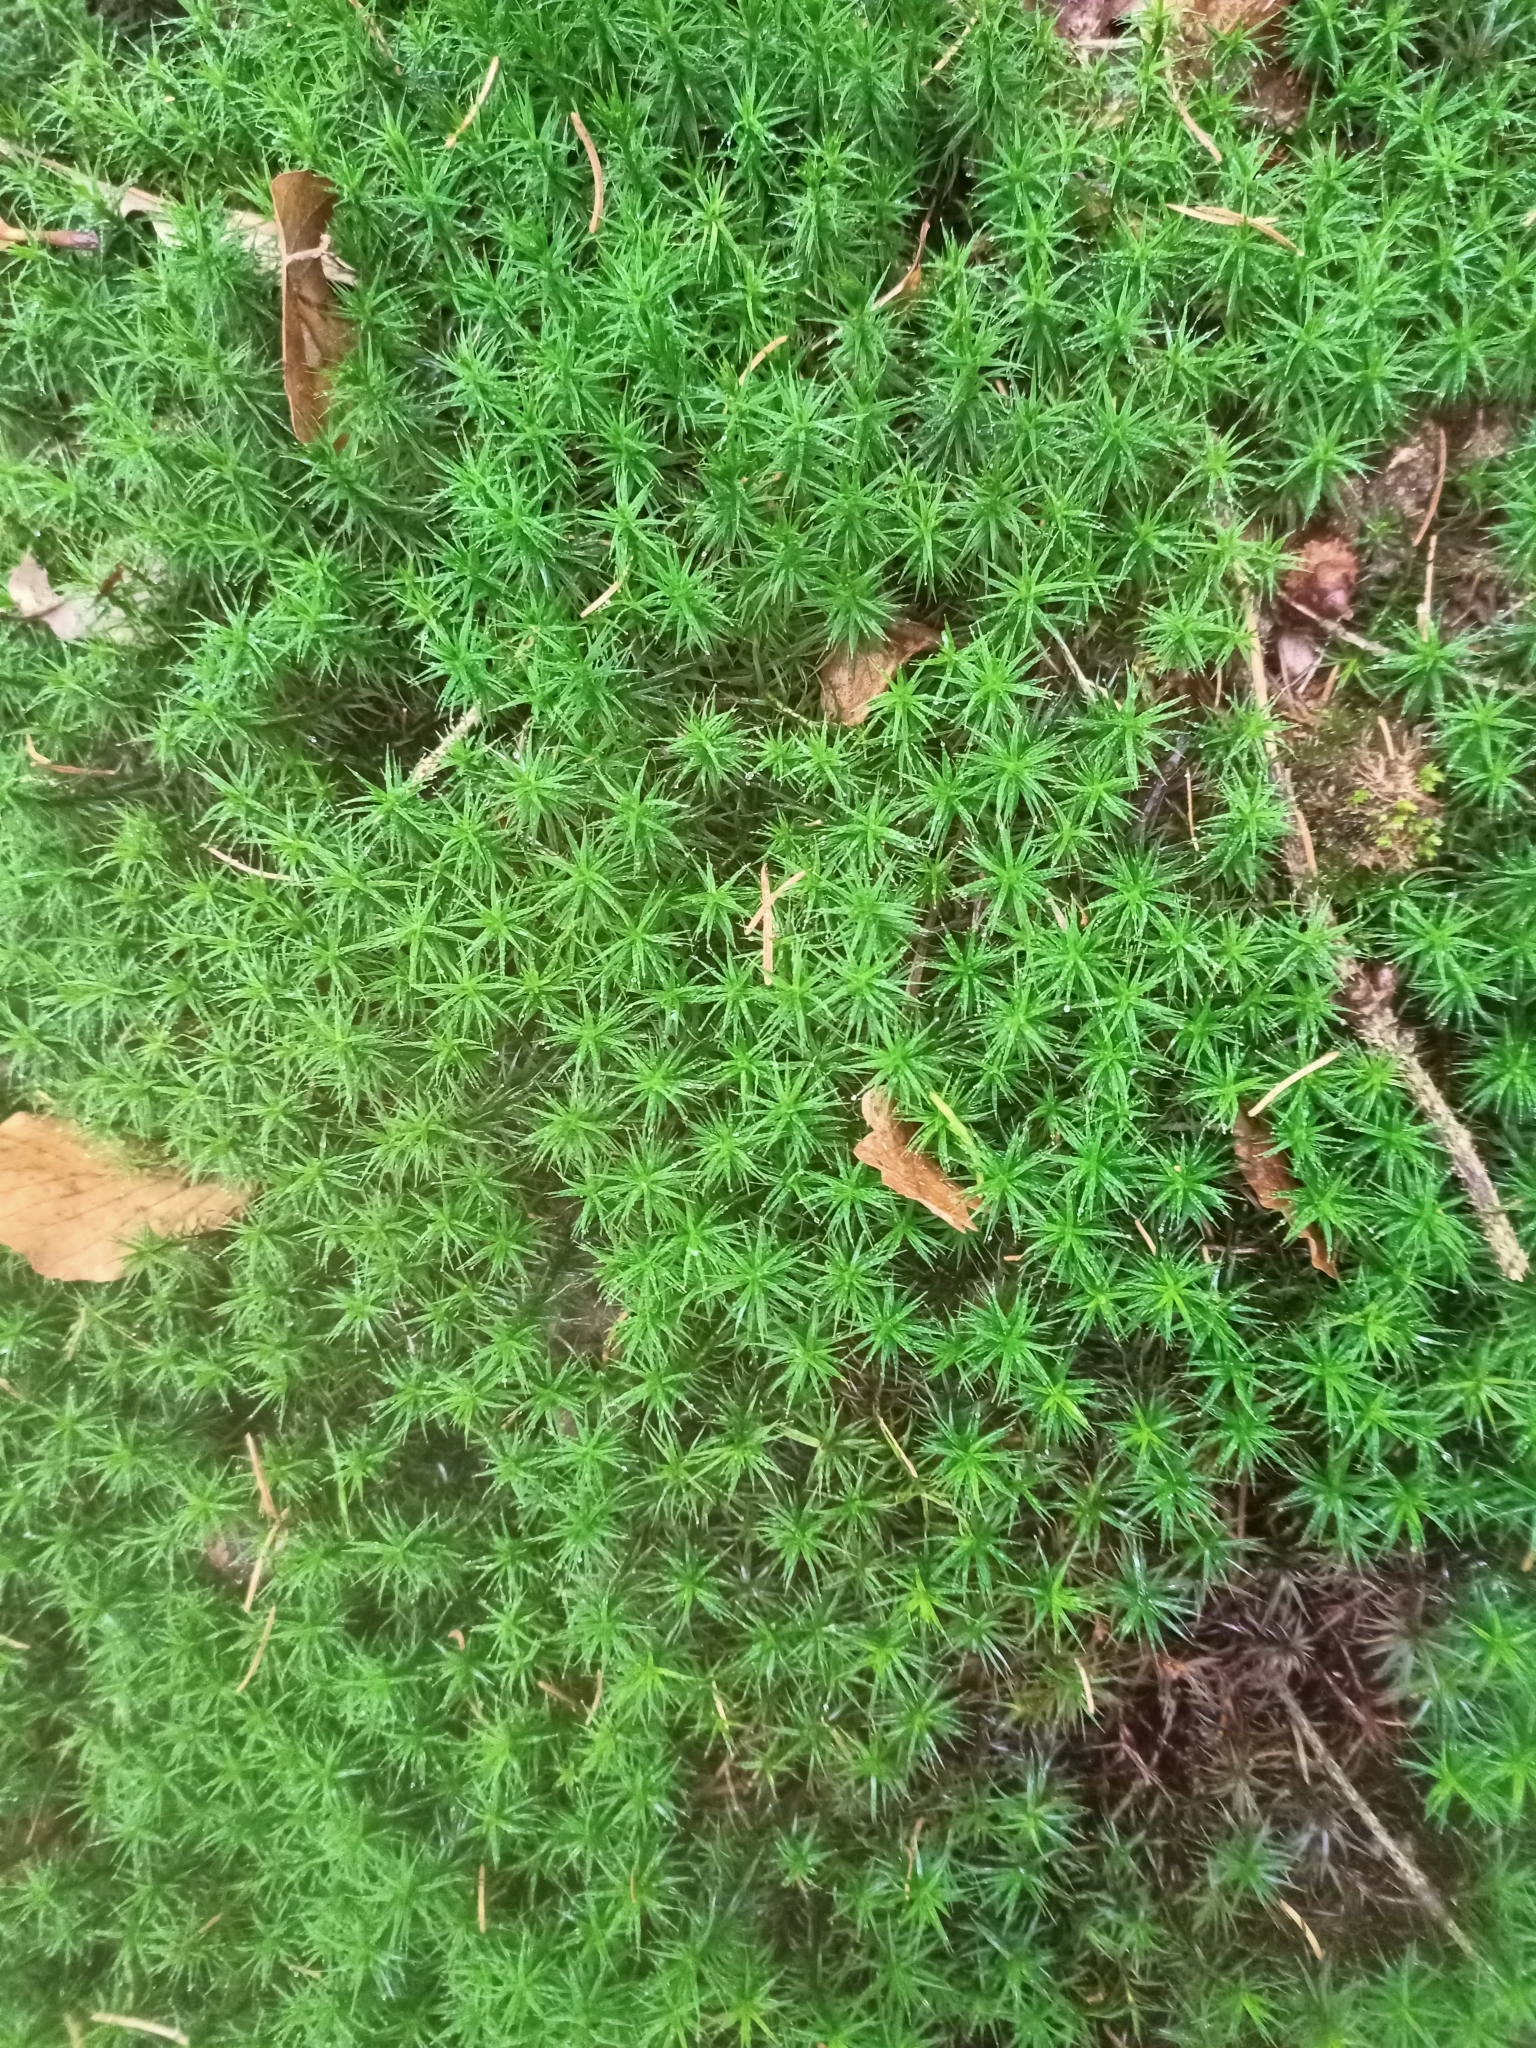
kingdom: Plantae
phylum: Bryophyta
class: Polytrichopsida
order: Polytrichales
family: Polytrichaceae
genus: Polytrichum
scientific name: Polytrichum formosum
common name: Bank haircap moss
